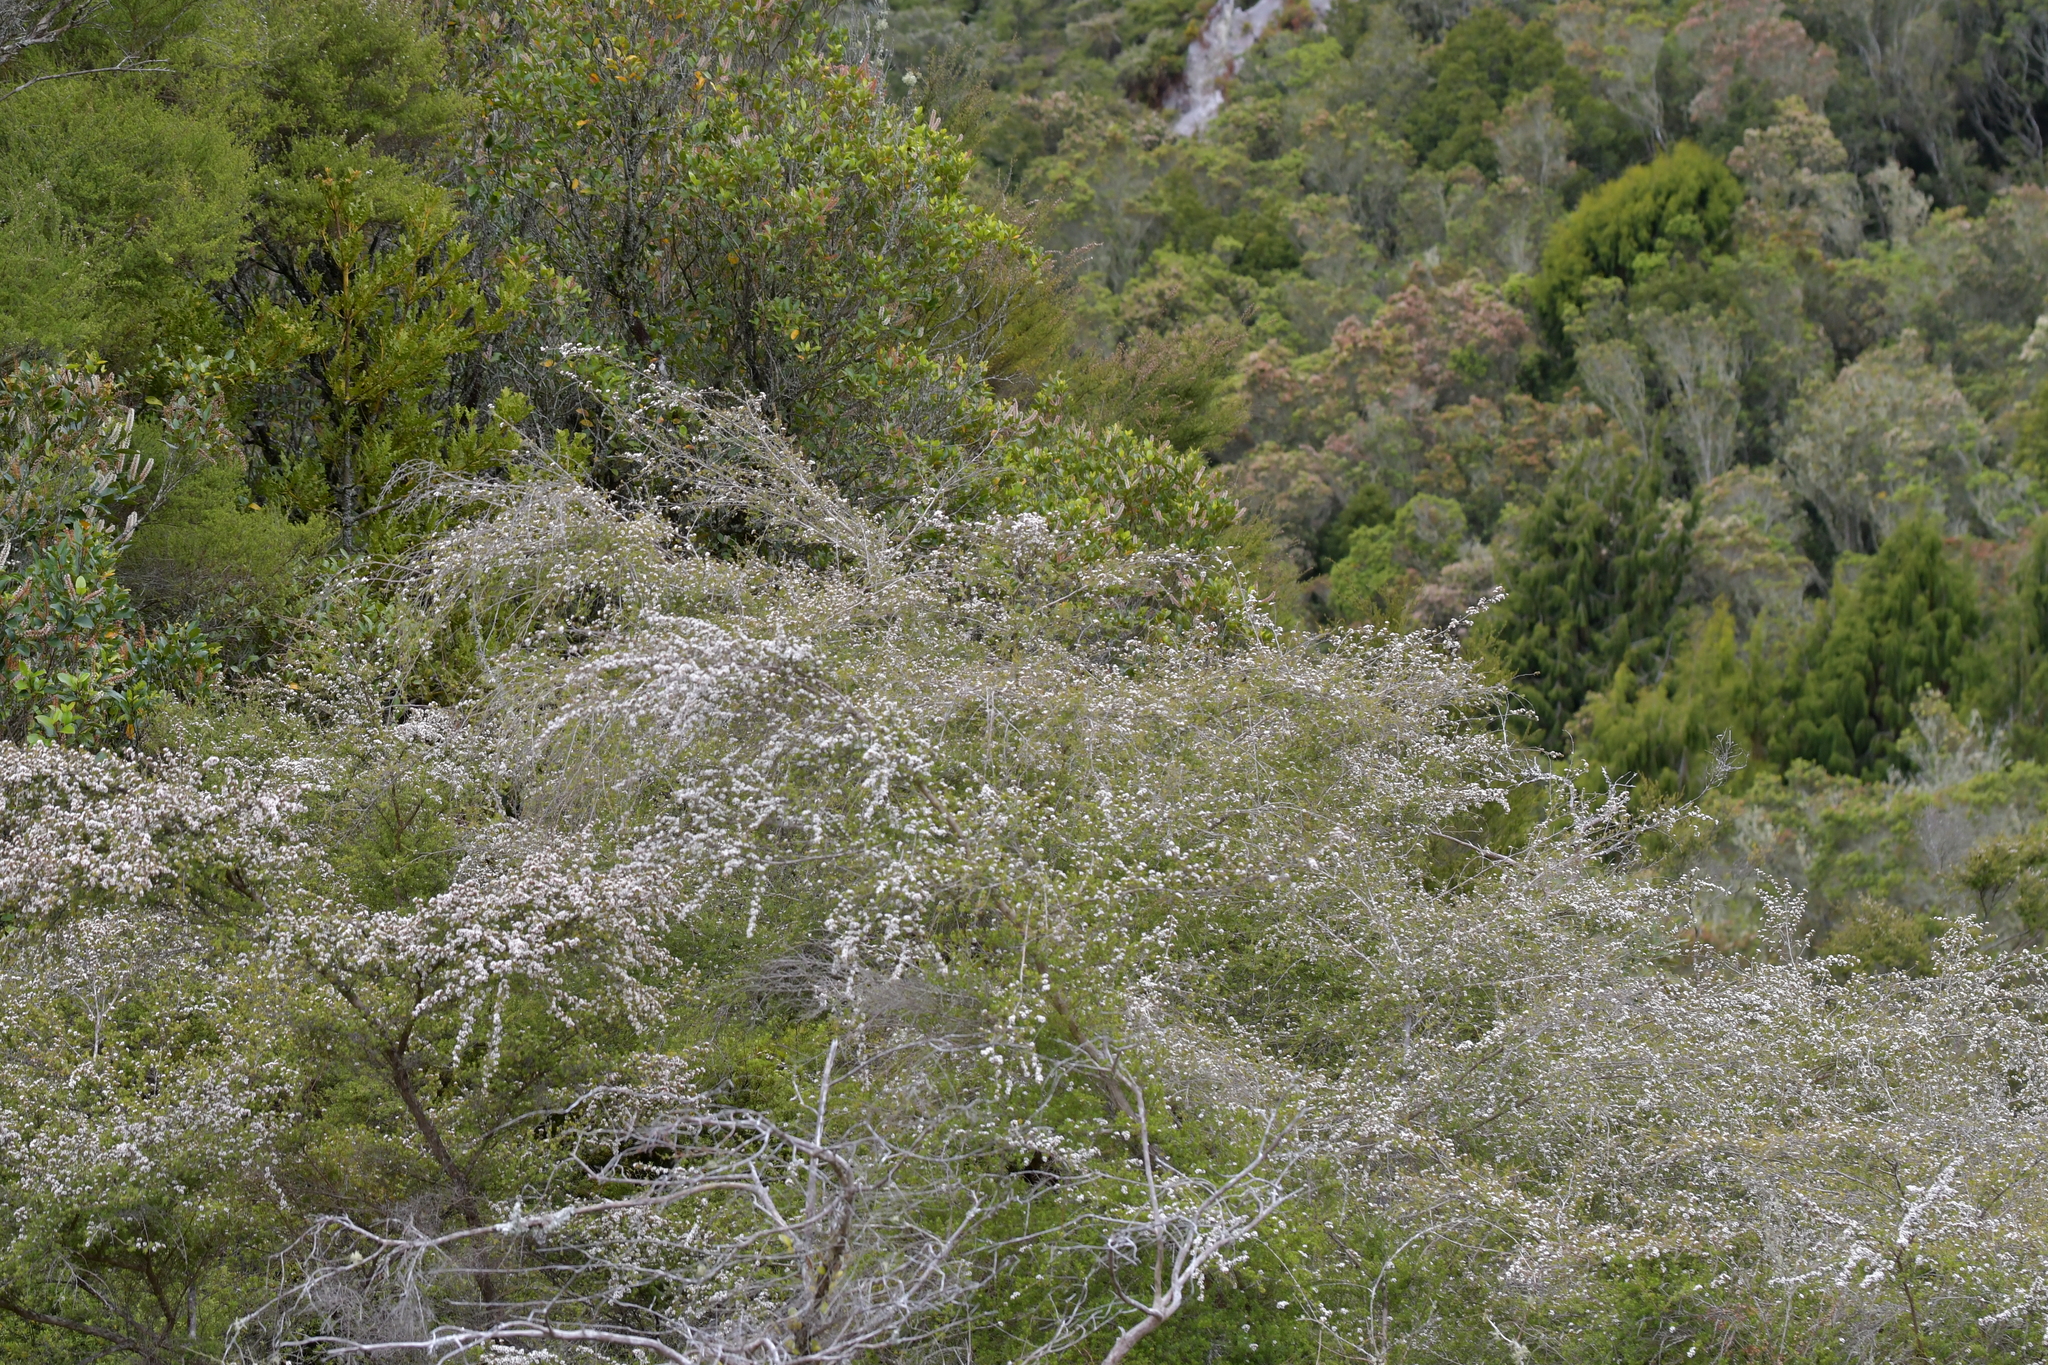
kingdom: Plantae
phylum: Tracheophyta
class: Magnoliopsida
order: Myrtales
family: Myrtaceae
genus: Kunzea
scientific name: Kunzea tenuicaulis
